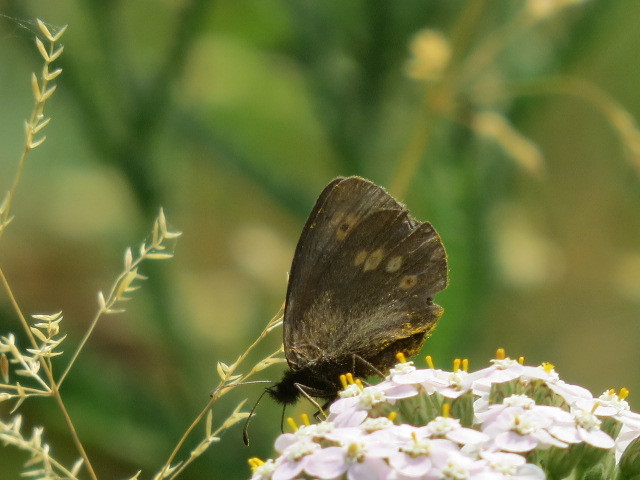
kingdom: Animalia
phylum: Arthropoda
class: Insecta
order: Lepidoptera
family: Nymphalidae
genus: Erebia
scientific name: Erebia melampus
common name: Lesser mountain ringlet
